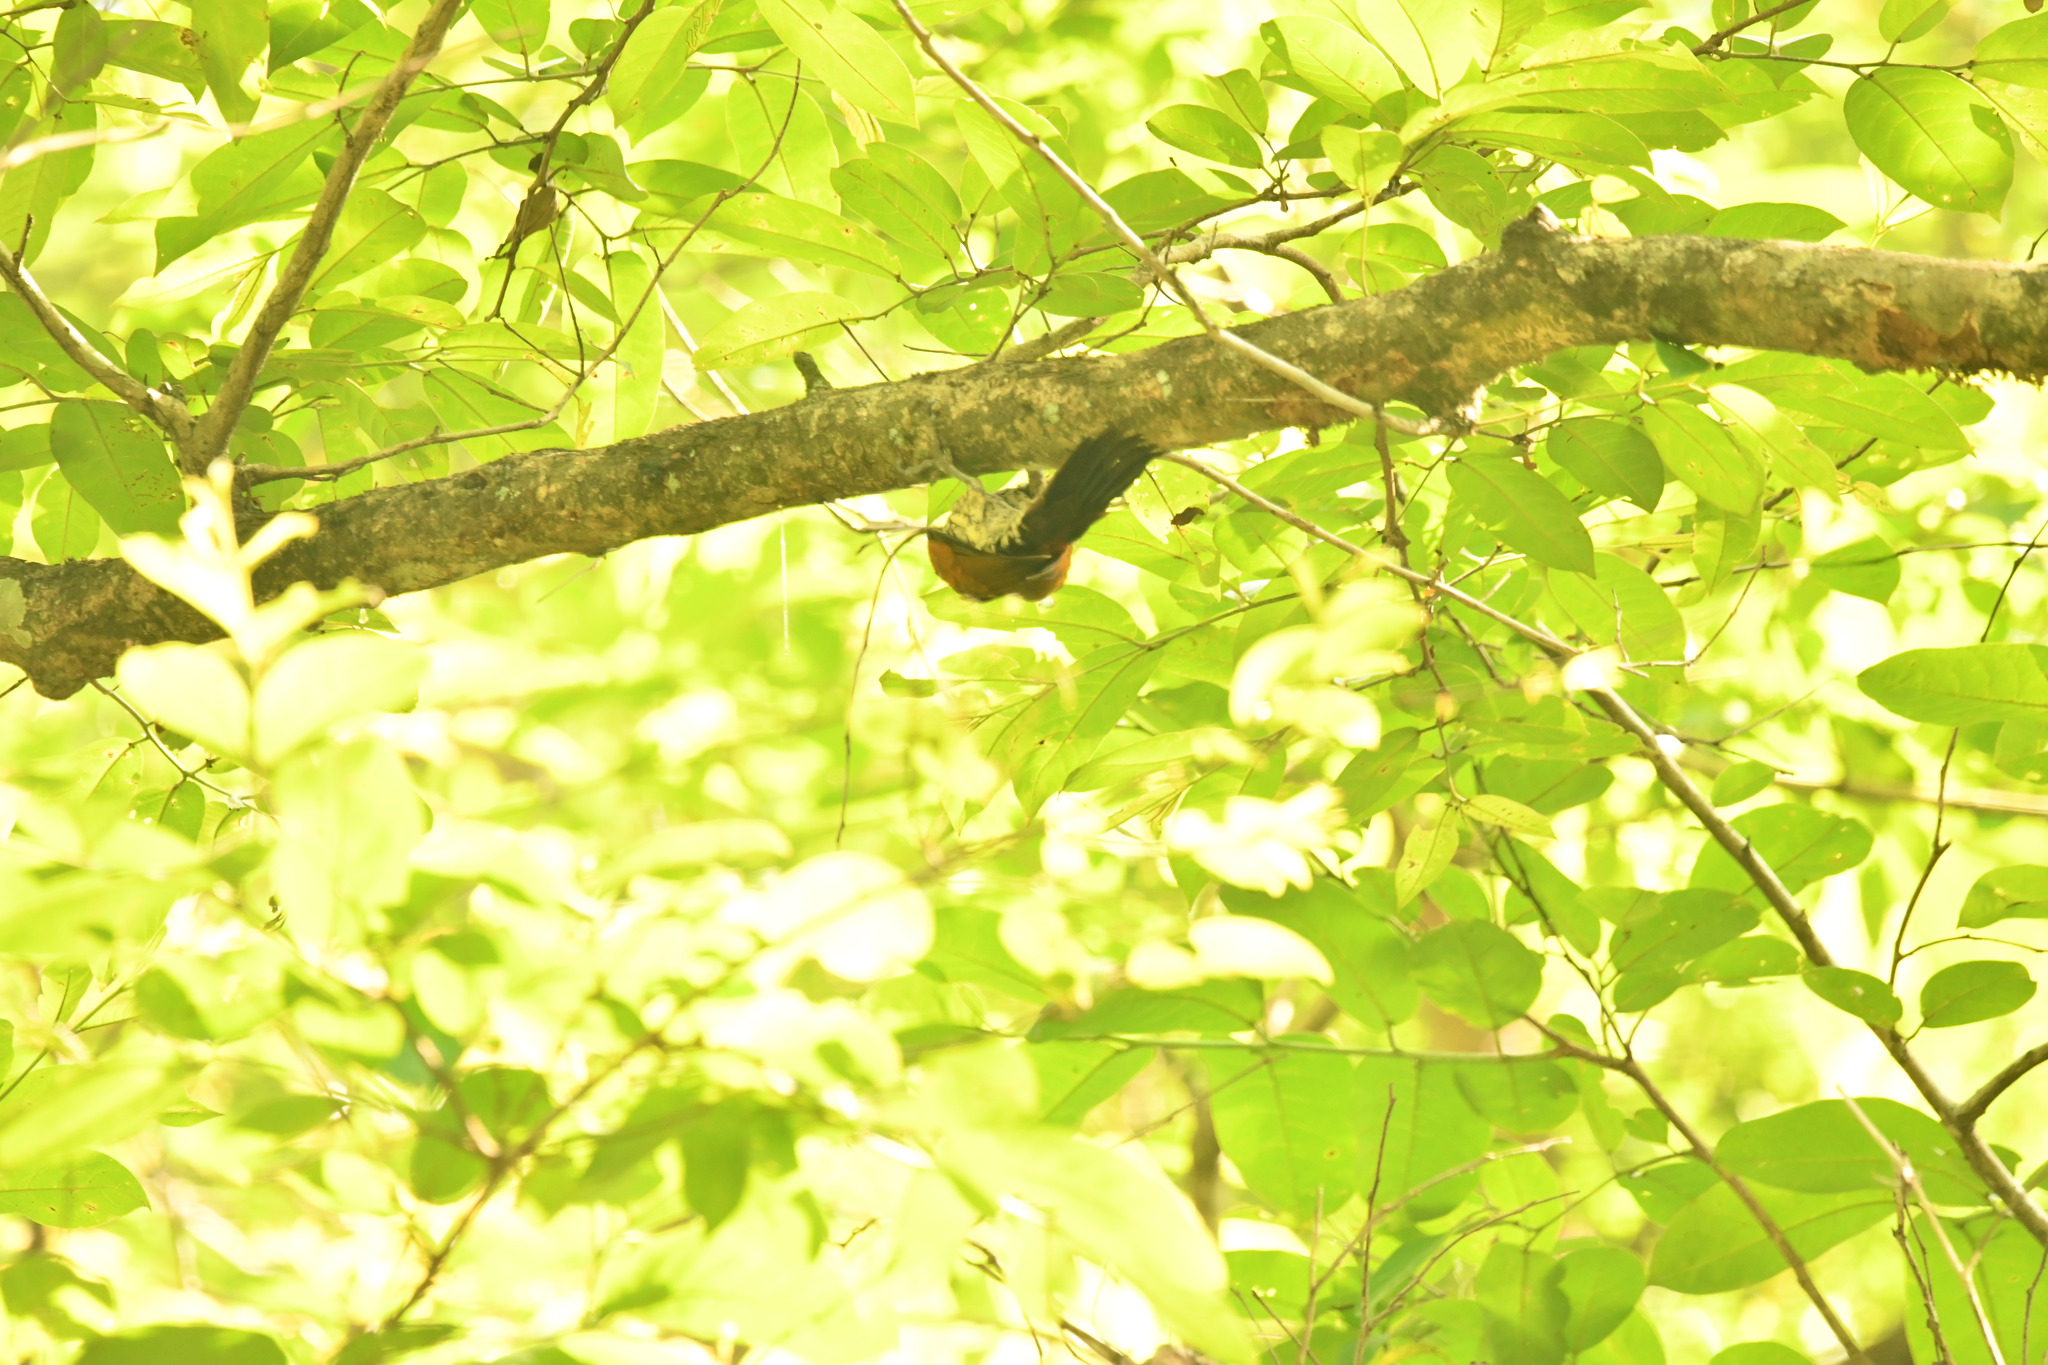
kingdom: Animalia
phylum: Chordata
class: Aves
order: Piciformes
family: Picidae
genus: Chrysocolaptes
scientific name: Chrysocolaptes socialis
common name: Malabar flameback
